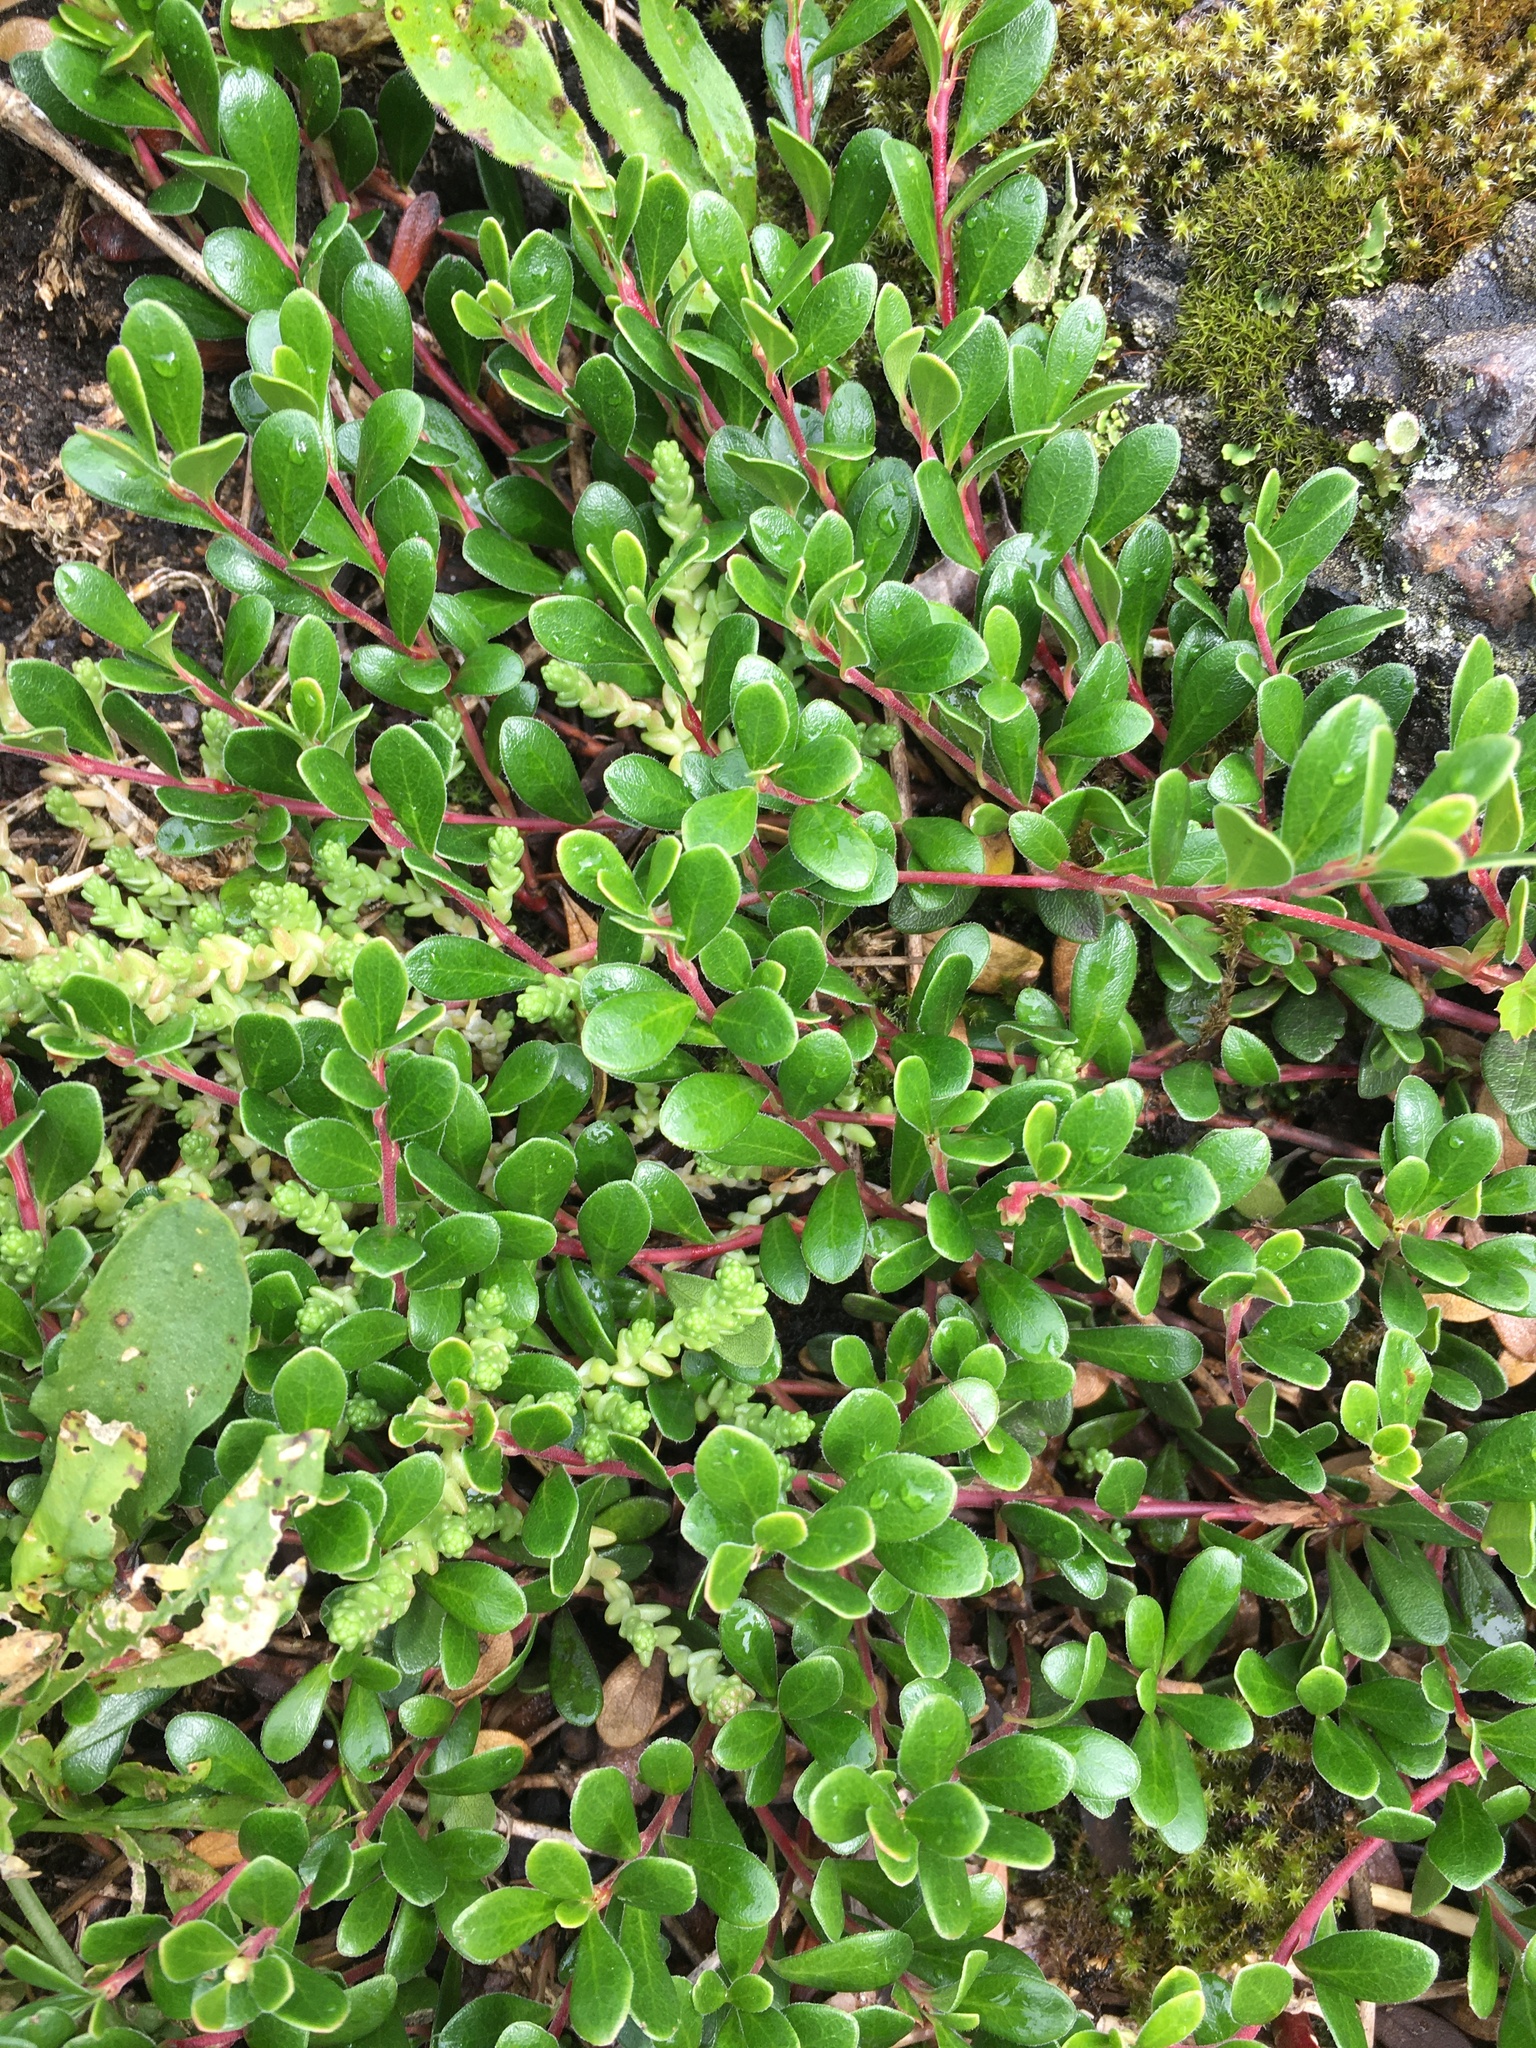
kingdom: Plantae
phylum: Tracheophyta
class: Magnoliopsida
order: Ericales
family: Ericaceae
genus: Arctostaphylos
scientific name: Arctostaphylos uva-ursi
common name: Bearberry
